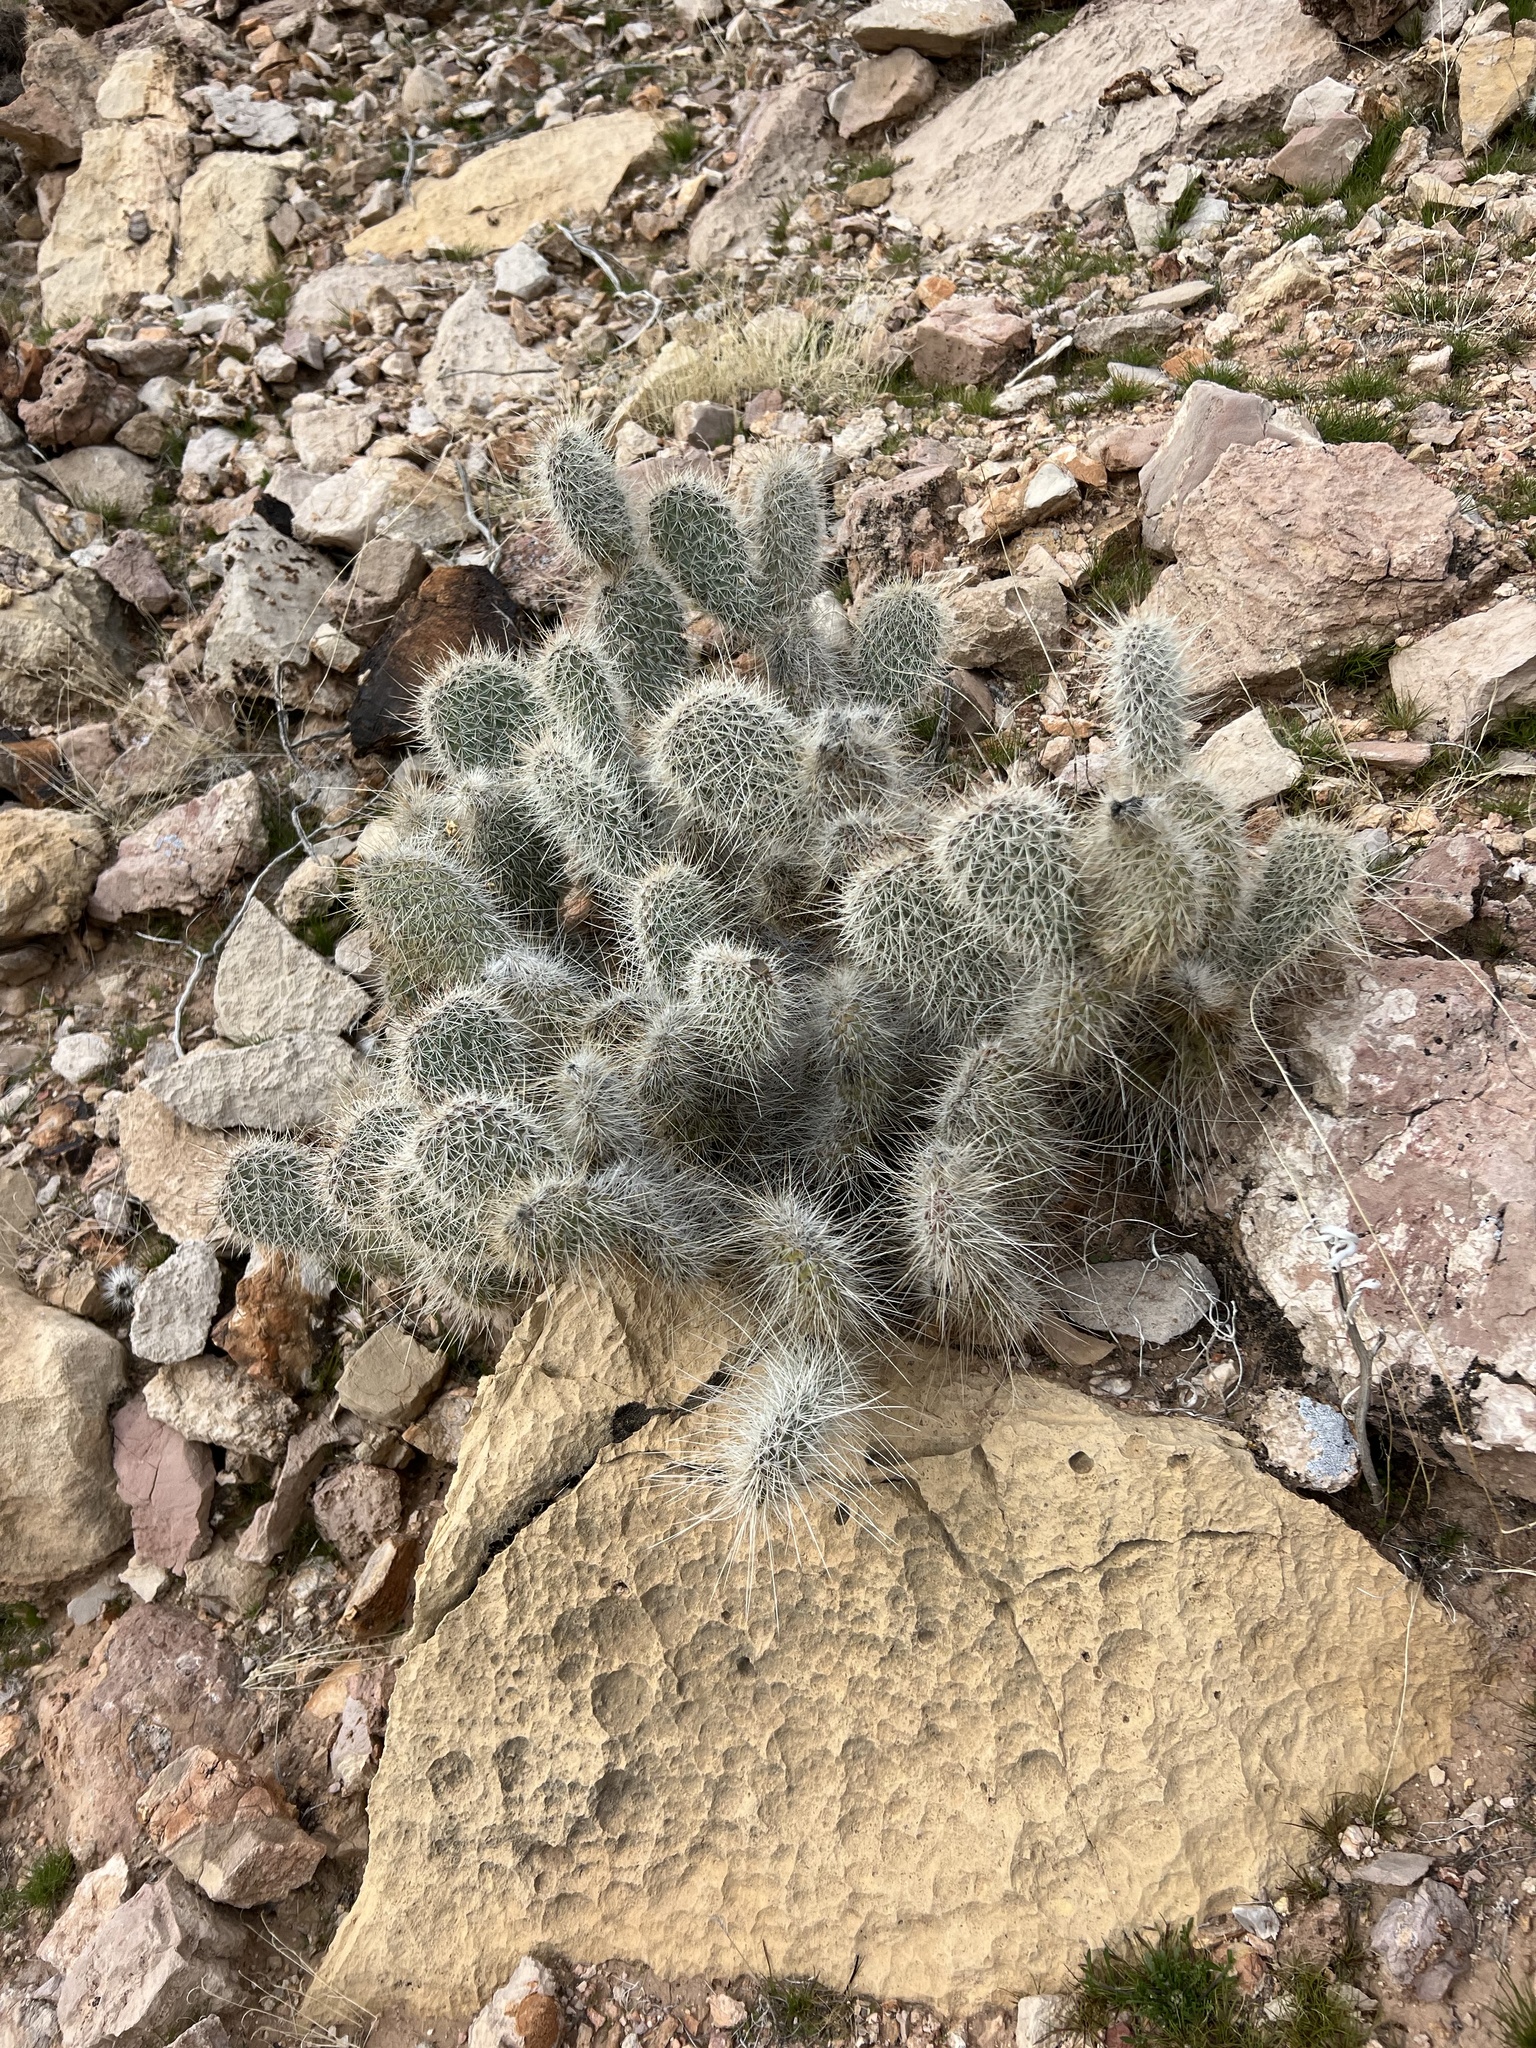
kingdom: Plantae
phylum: Tracheophyta
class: Magnoliopsida
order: Caryophyllales
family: Cactaceae
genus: Opuntia
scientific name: Opuntia polyacantha
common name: Plains prickly-pear
